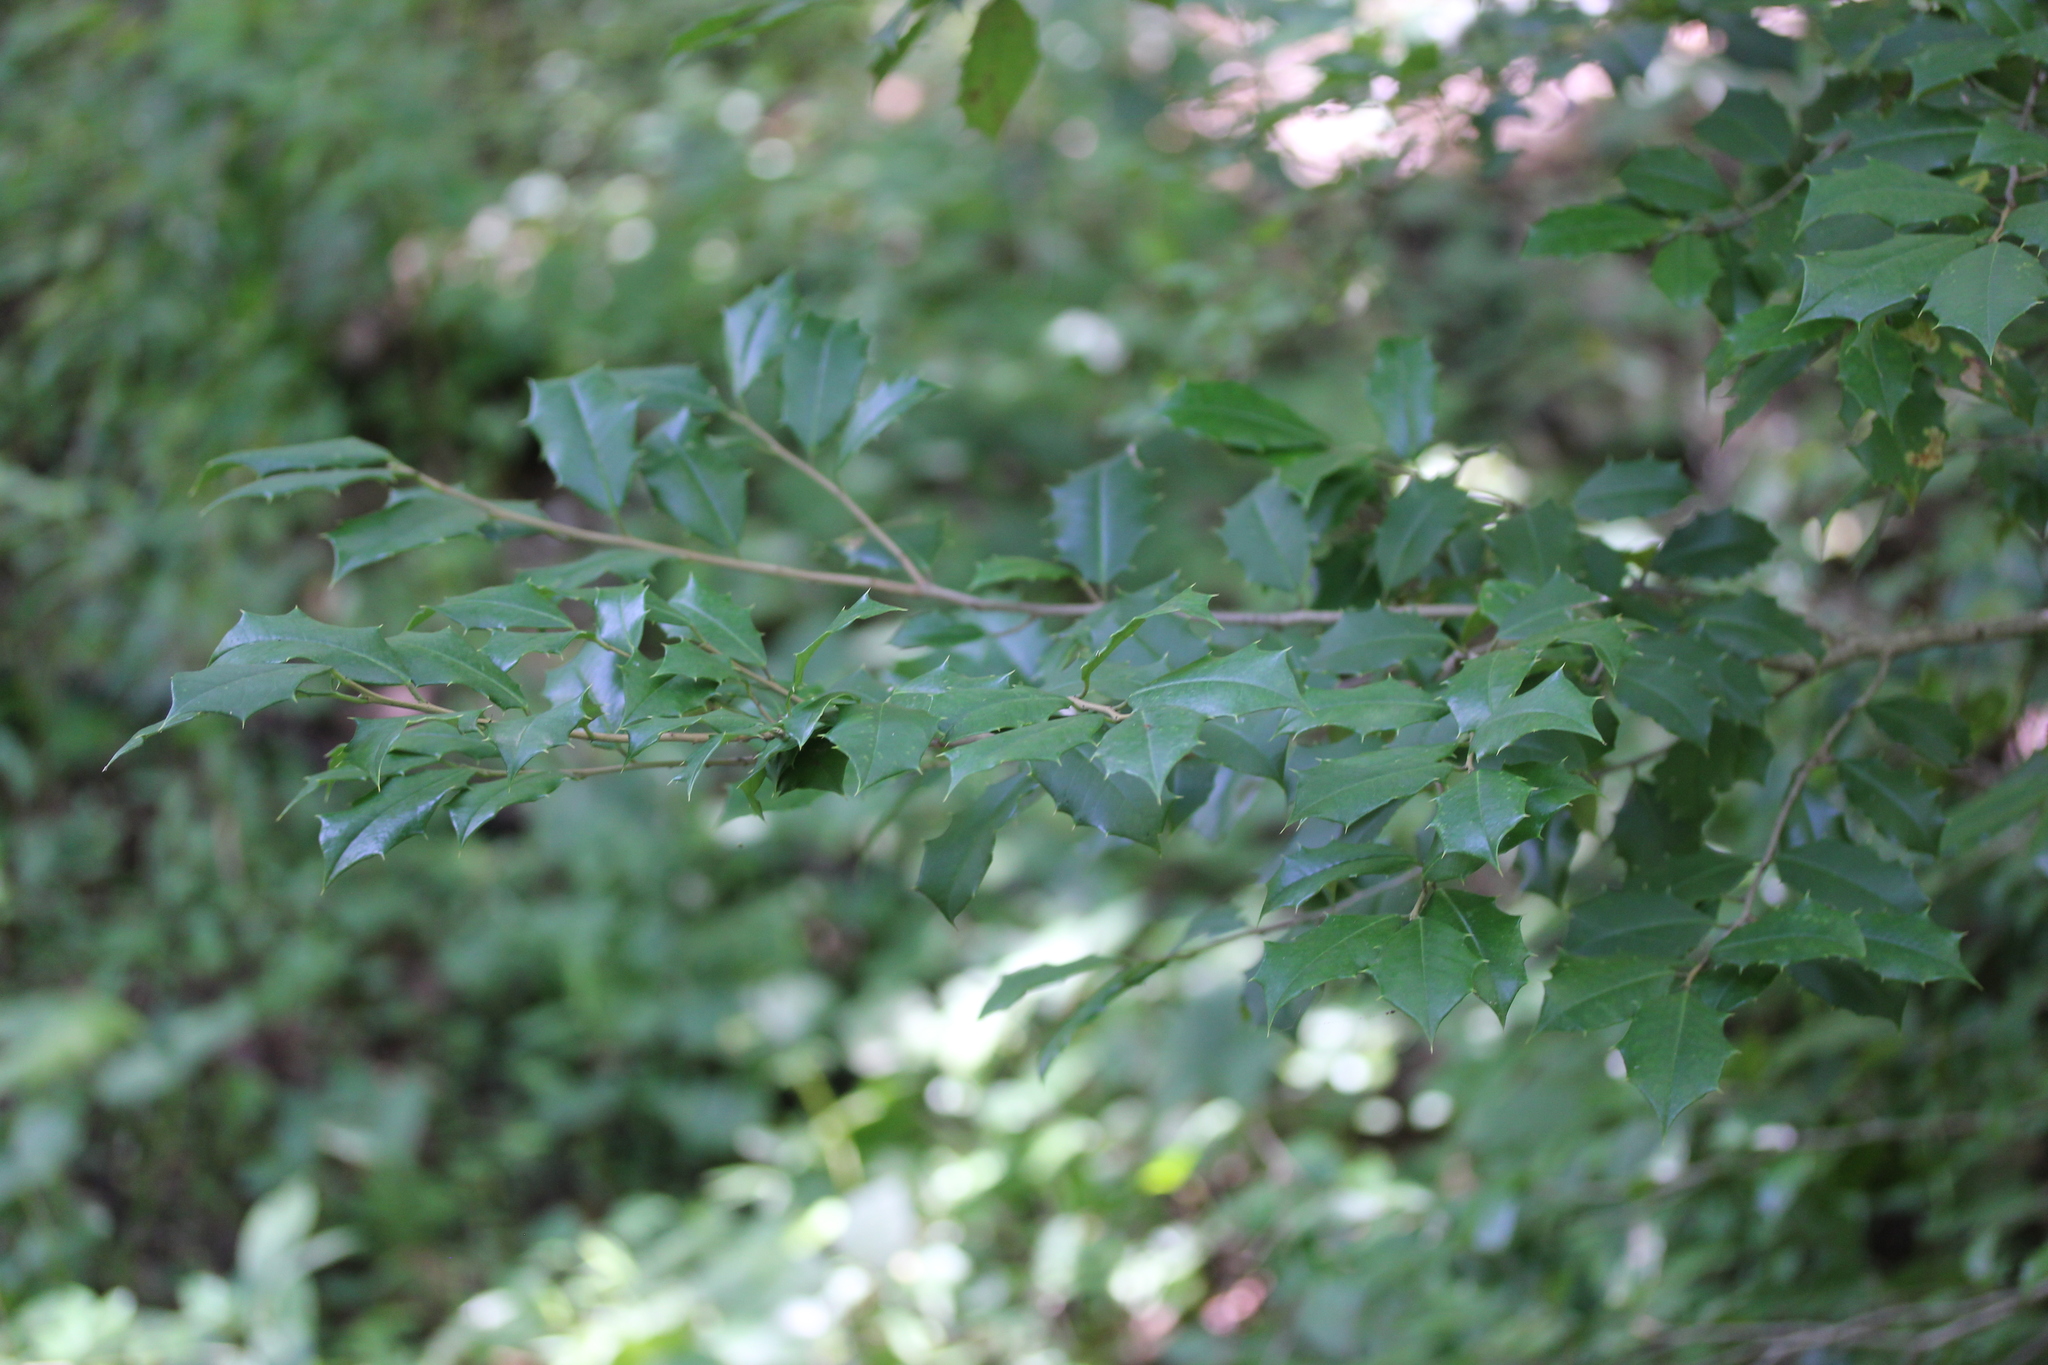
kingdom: Plantae
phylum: Tracheophyta
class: Magnoliopsida
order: Aquifoliales
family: Aquifoliaceae
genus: Ilex
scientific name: Ilex opaca
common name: American holly
